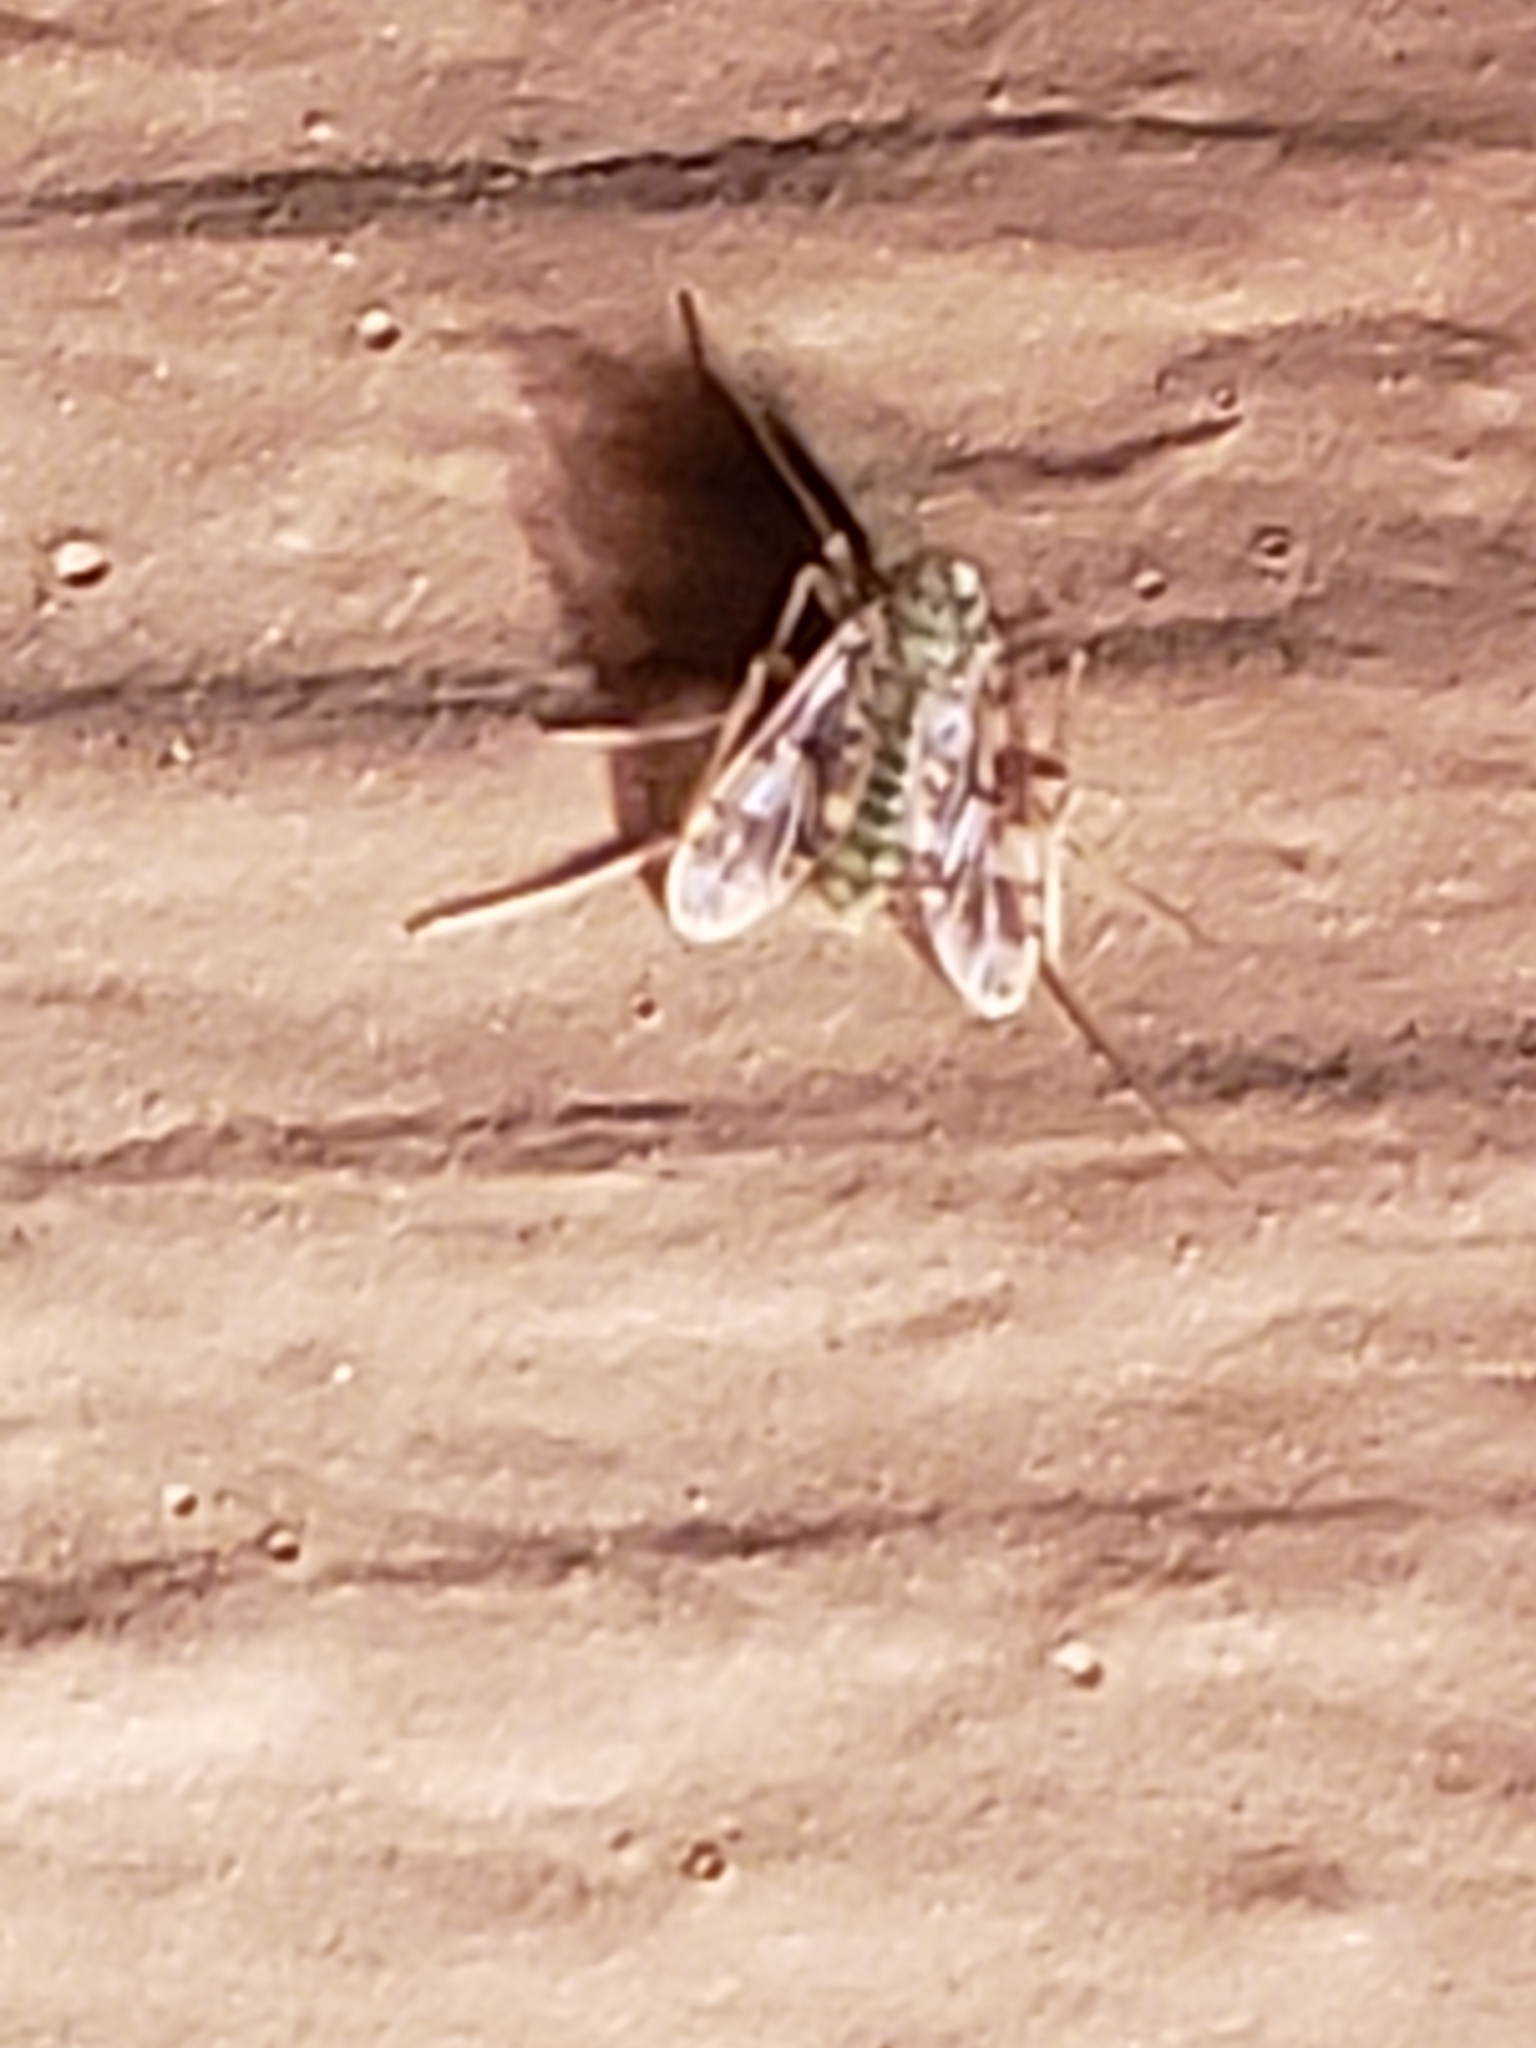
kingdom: Animalia
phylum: Arthropoda
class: Insecta
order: Diptera
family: Chironomidae
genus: Psectrotanypus
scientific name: Psectrotanypus dyari
